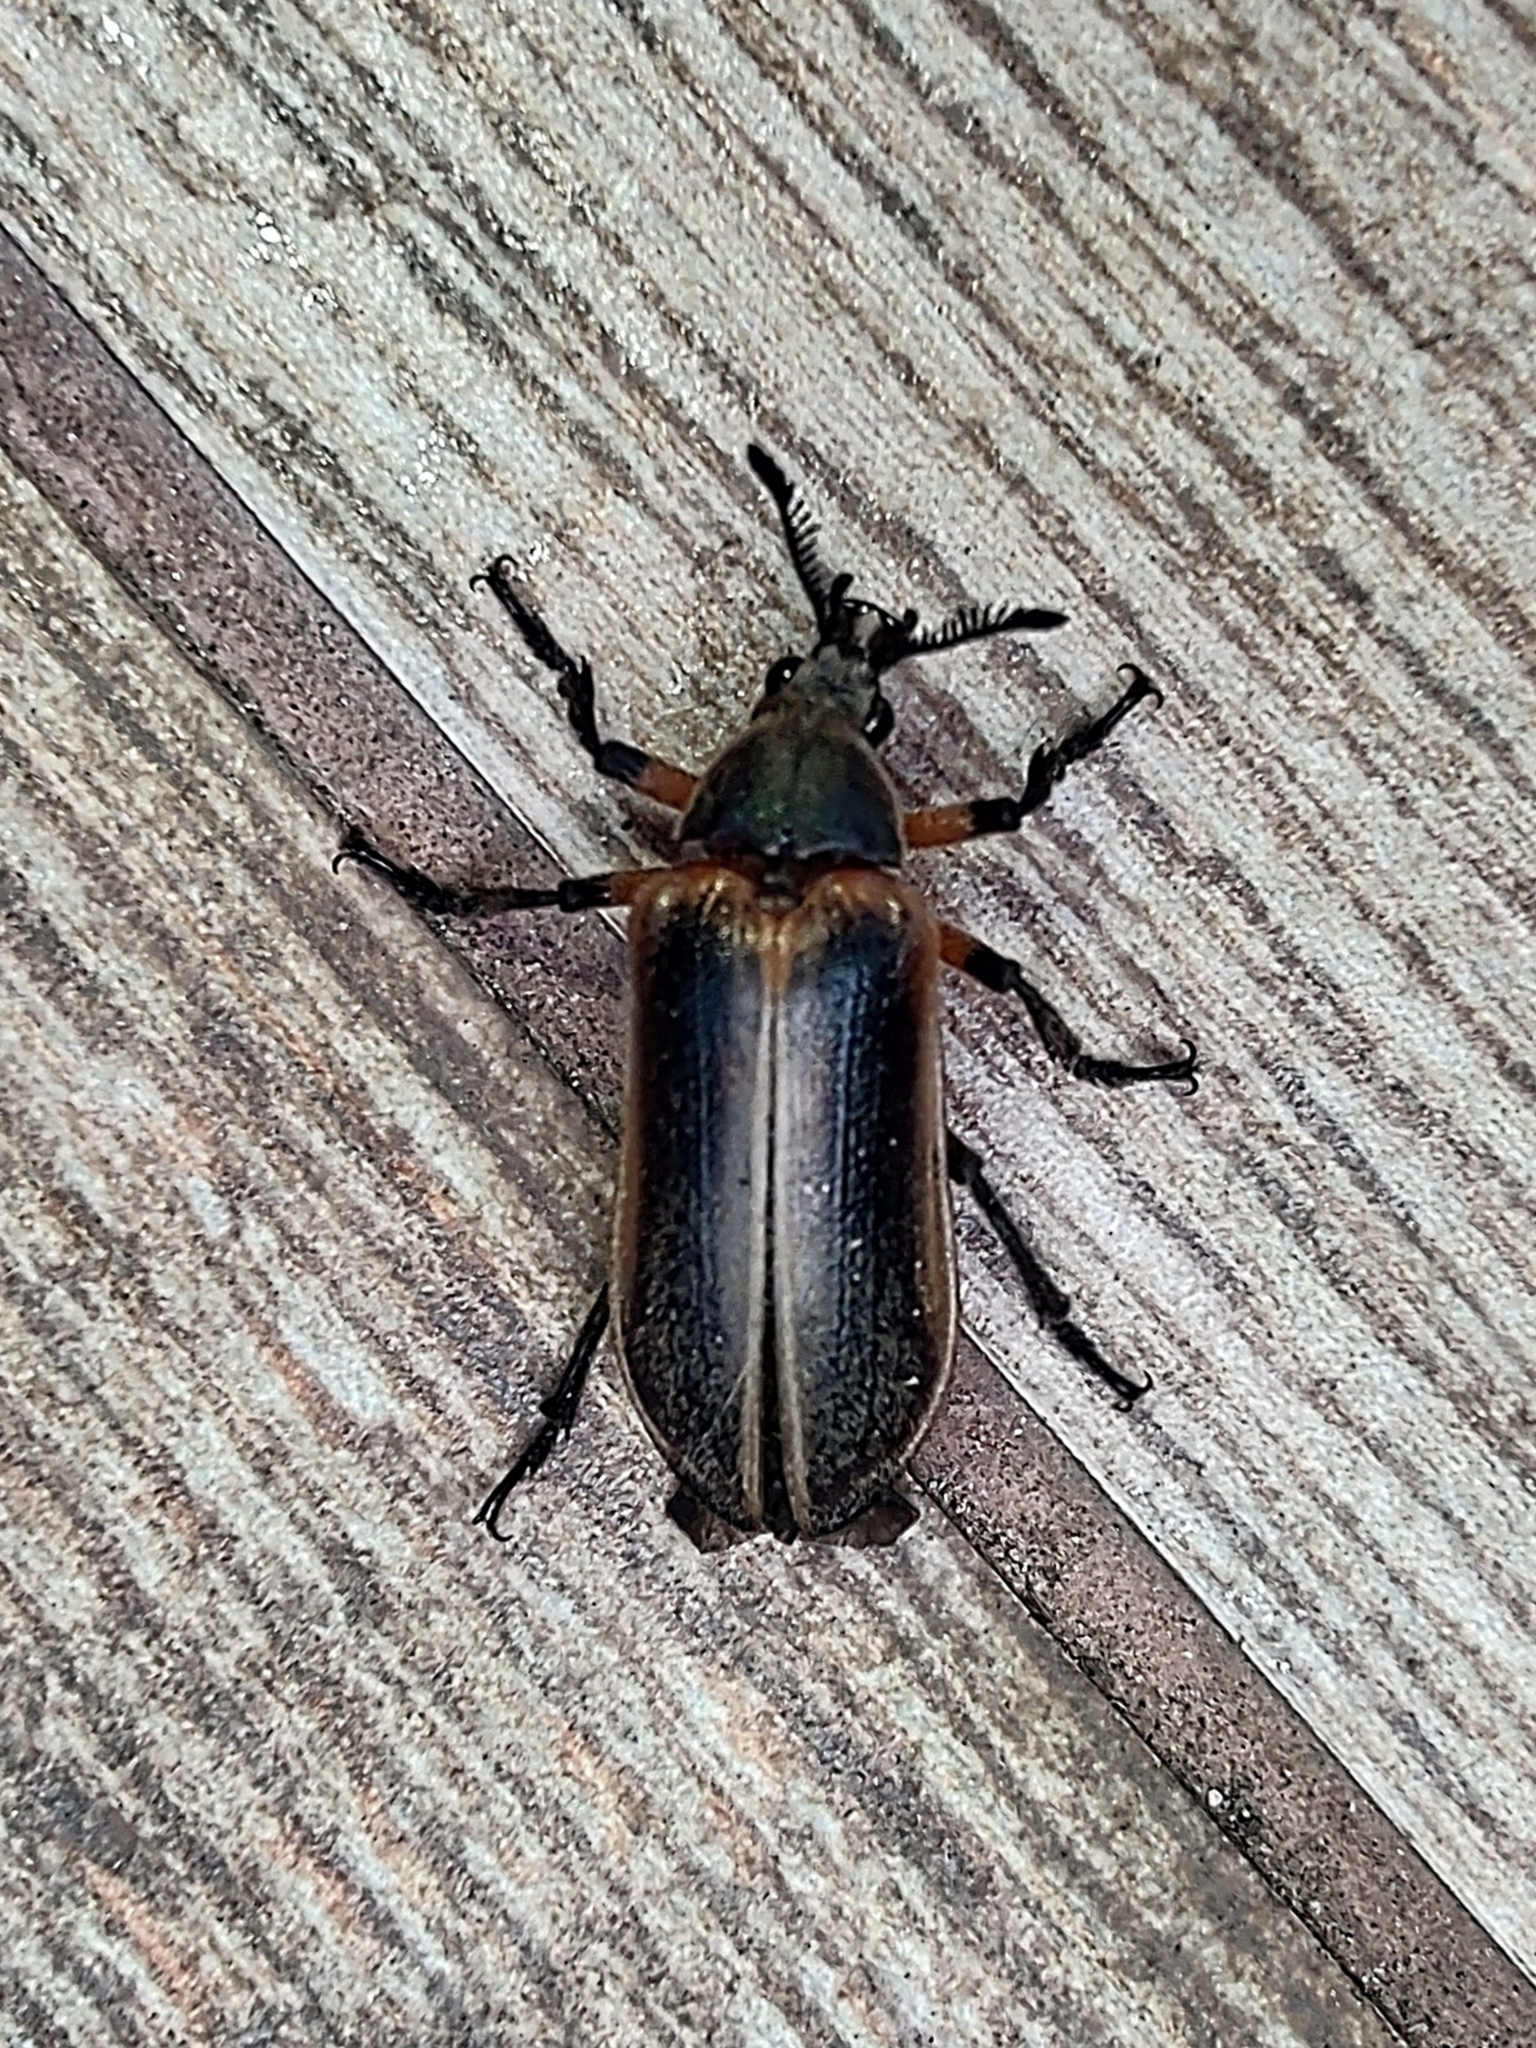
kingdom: Animalia
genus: Polytomus
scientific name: Polytomus
